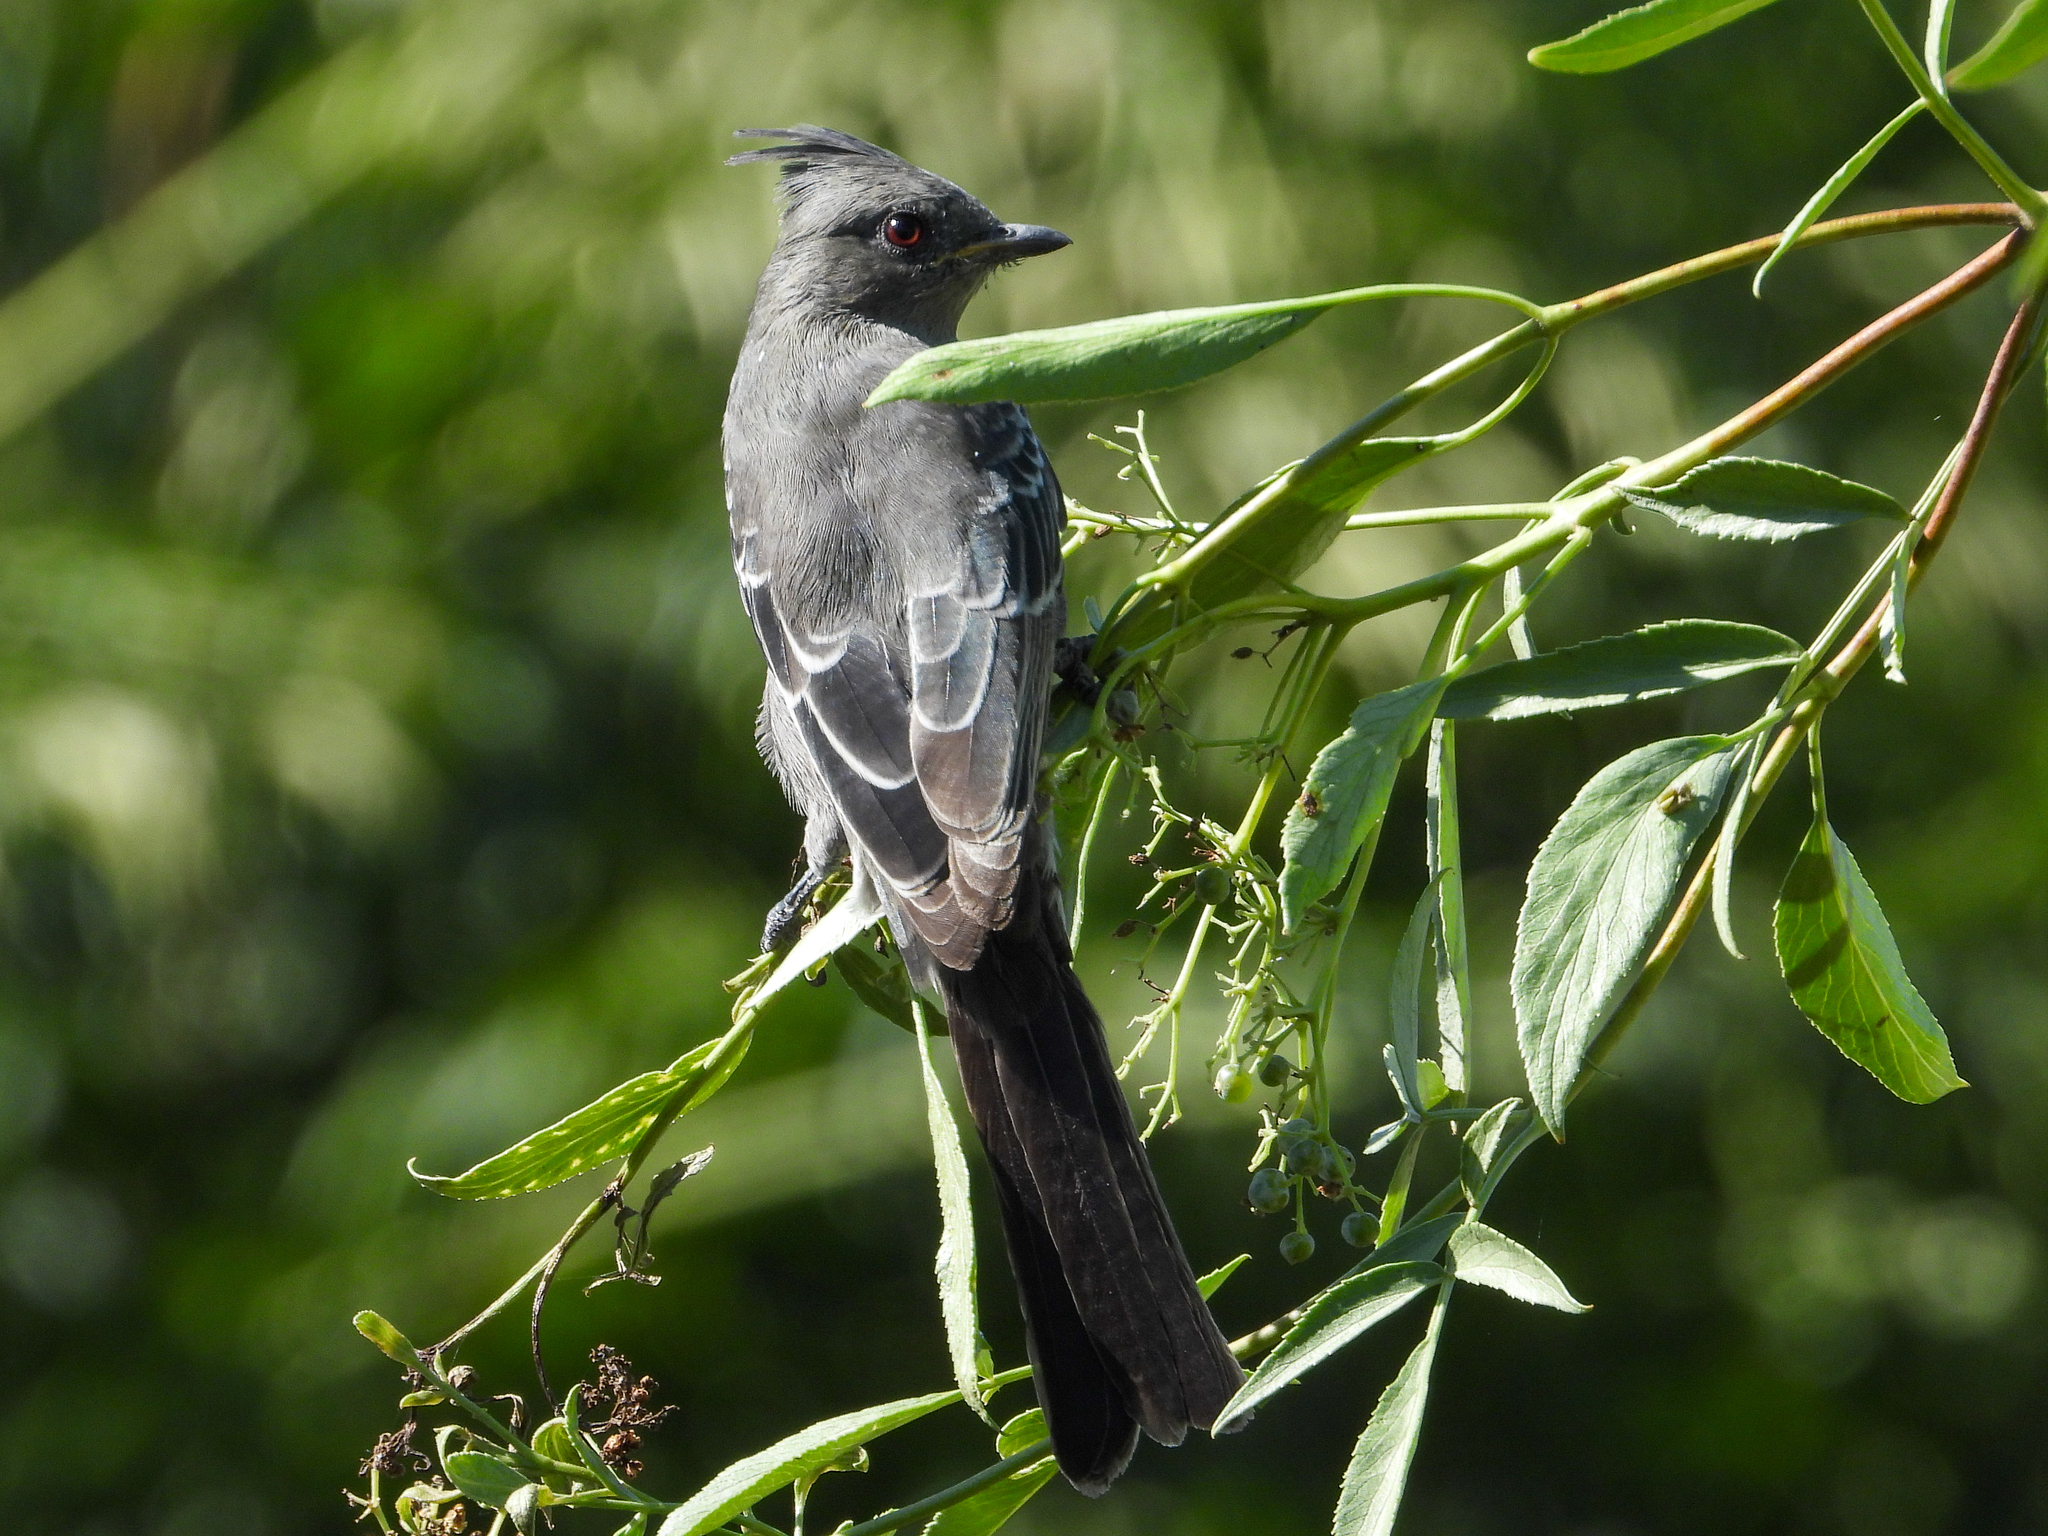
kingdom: Animalia
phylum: Chordata
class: Aves
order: Passeriformes
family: Ptilogonatidae
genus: Phainopepla
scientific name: Phainopepla nitens
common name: Phainopepla
